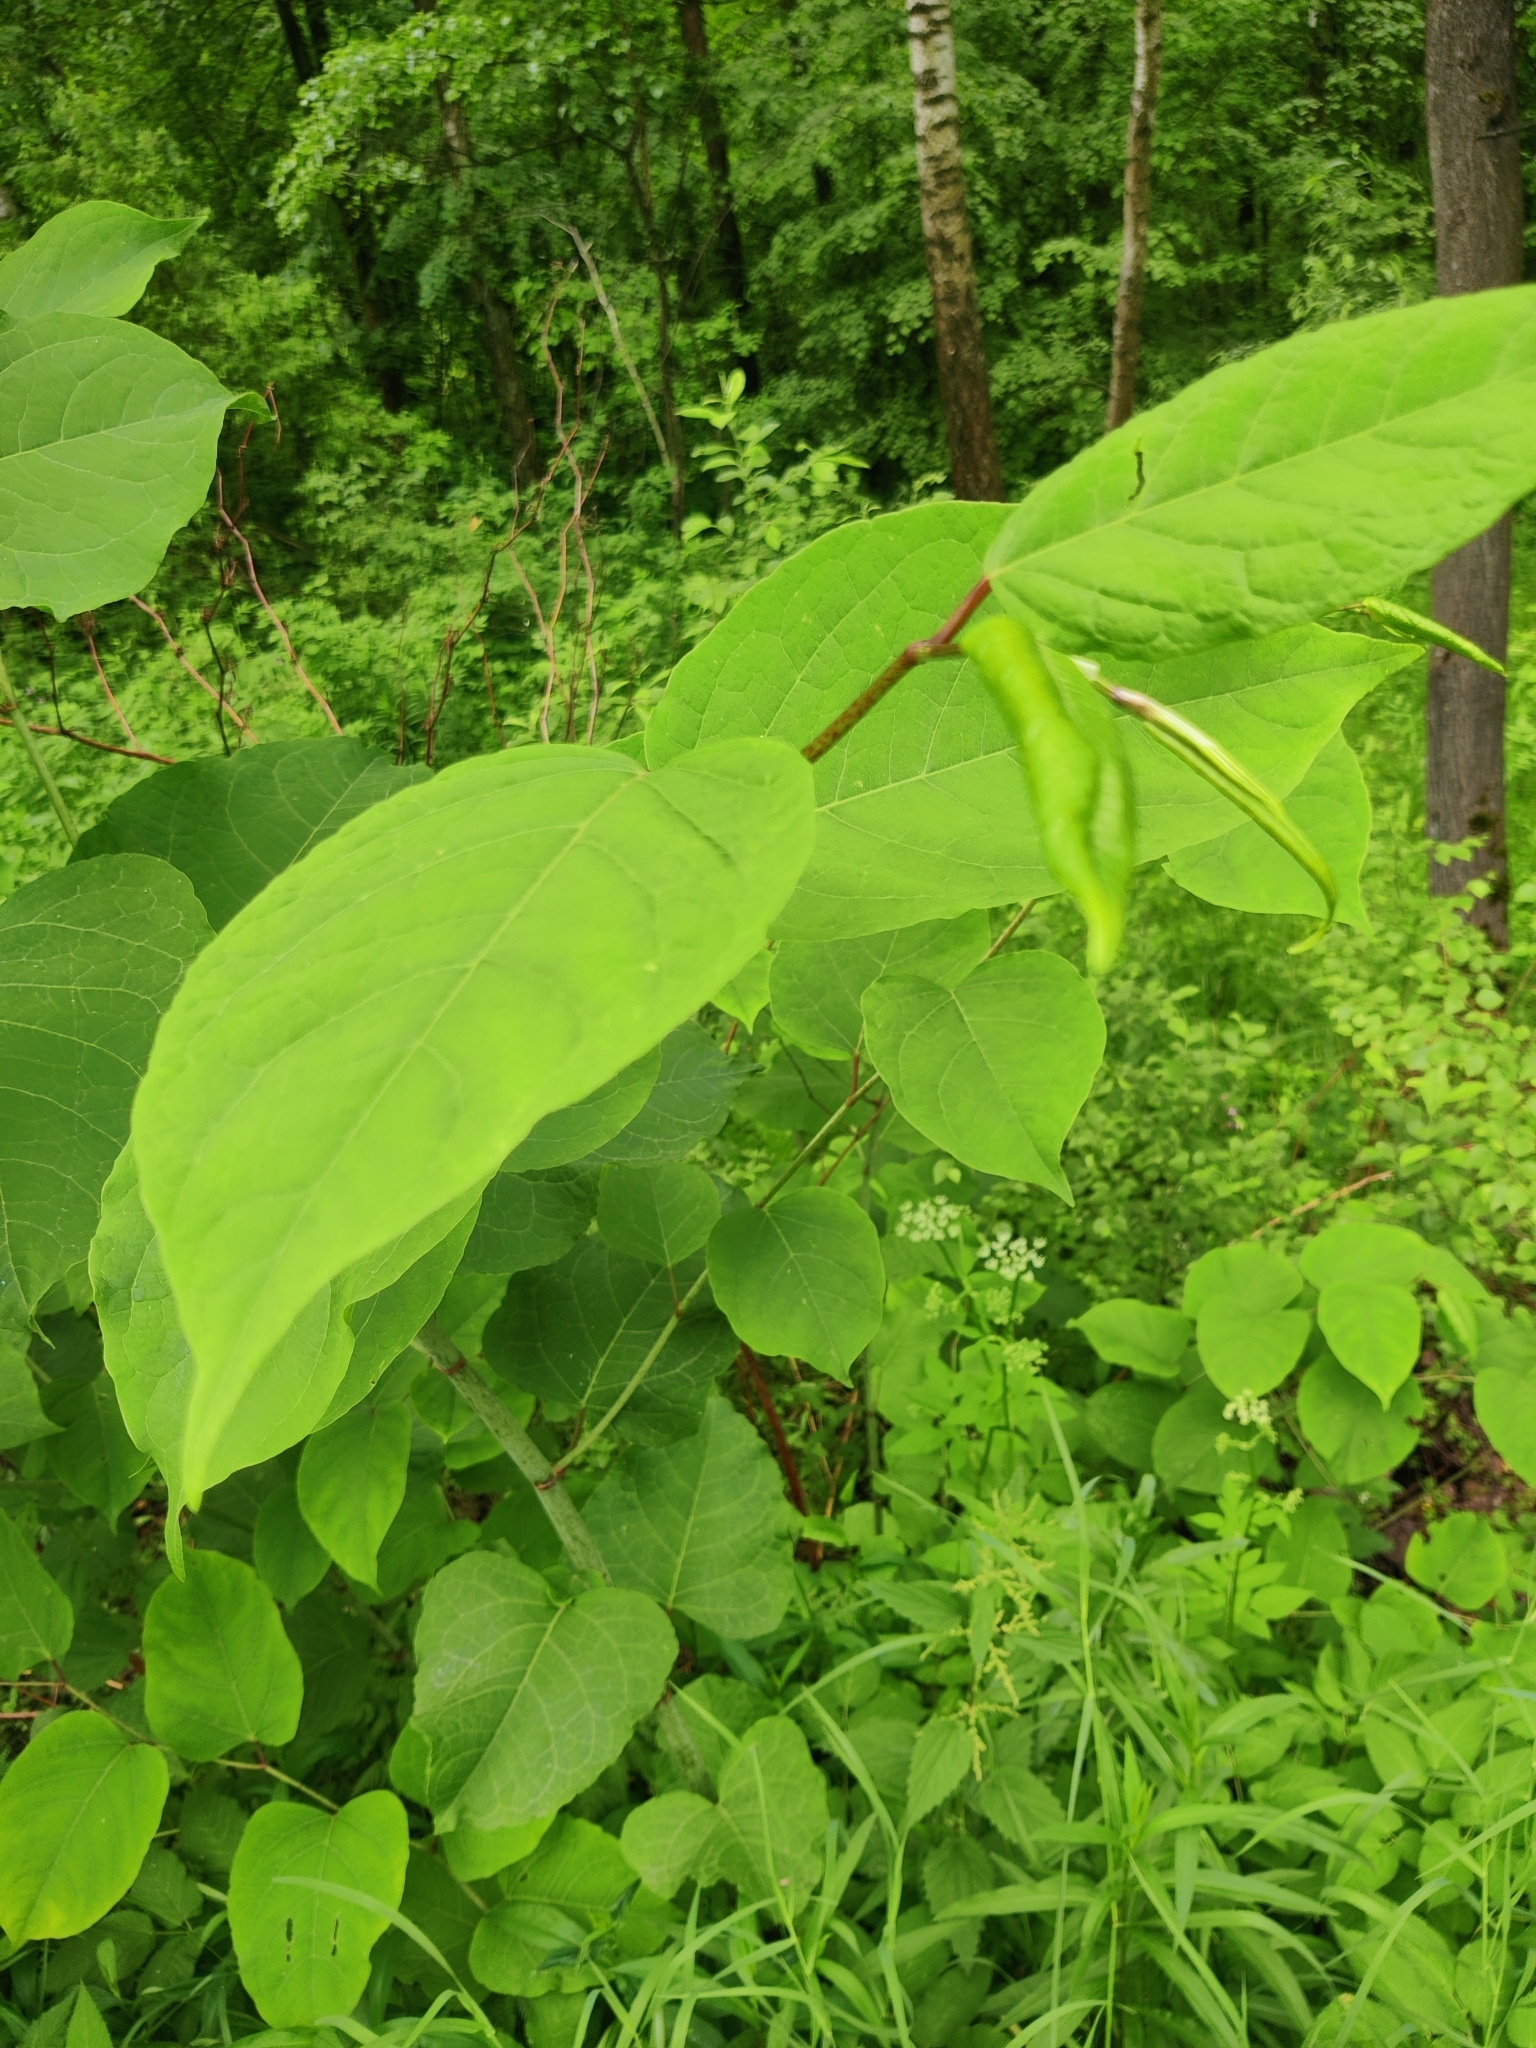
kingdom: Plantae
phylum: Tracheophyta
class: Magnoliopsida
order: Caryophyllales
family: Polygonaceae
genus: Reynoutria
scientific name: Reynoutria bohemica
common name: Bohemian knotweed
